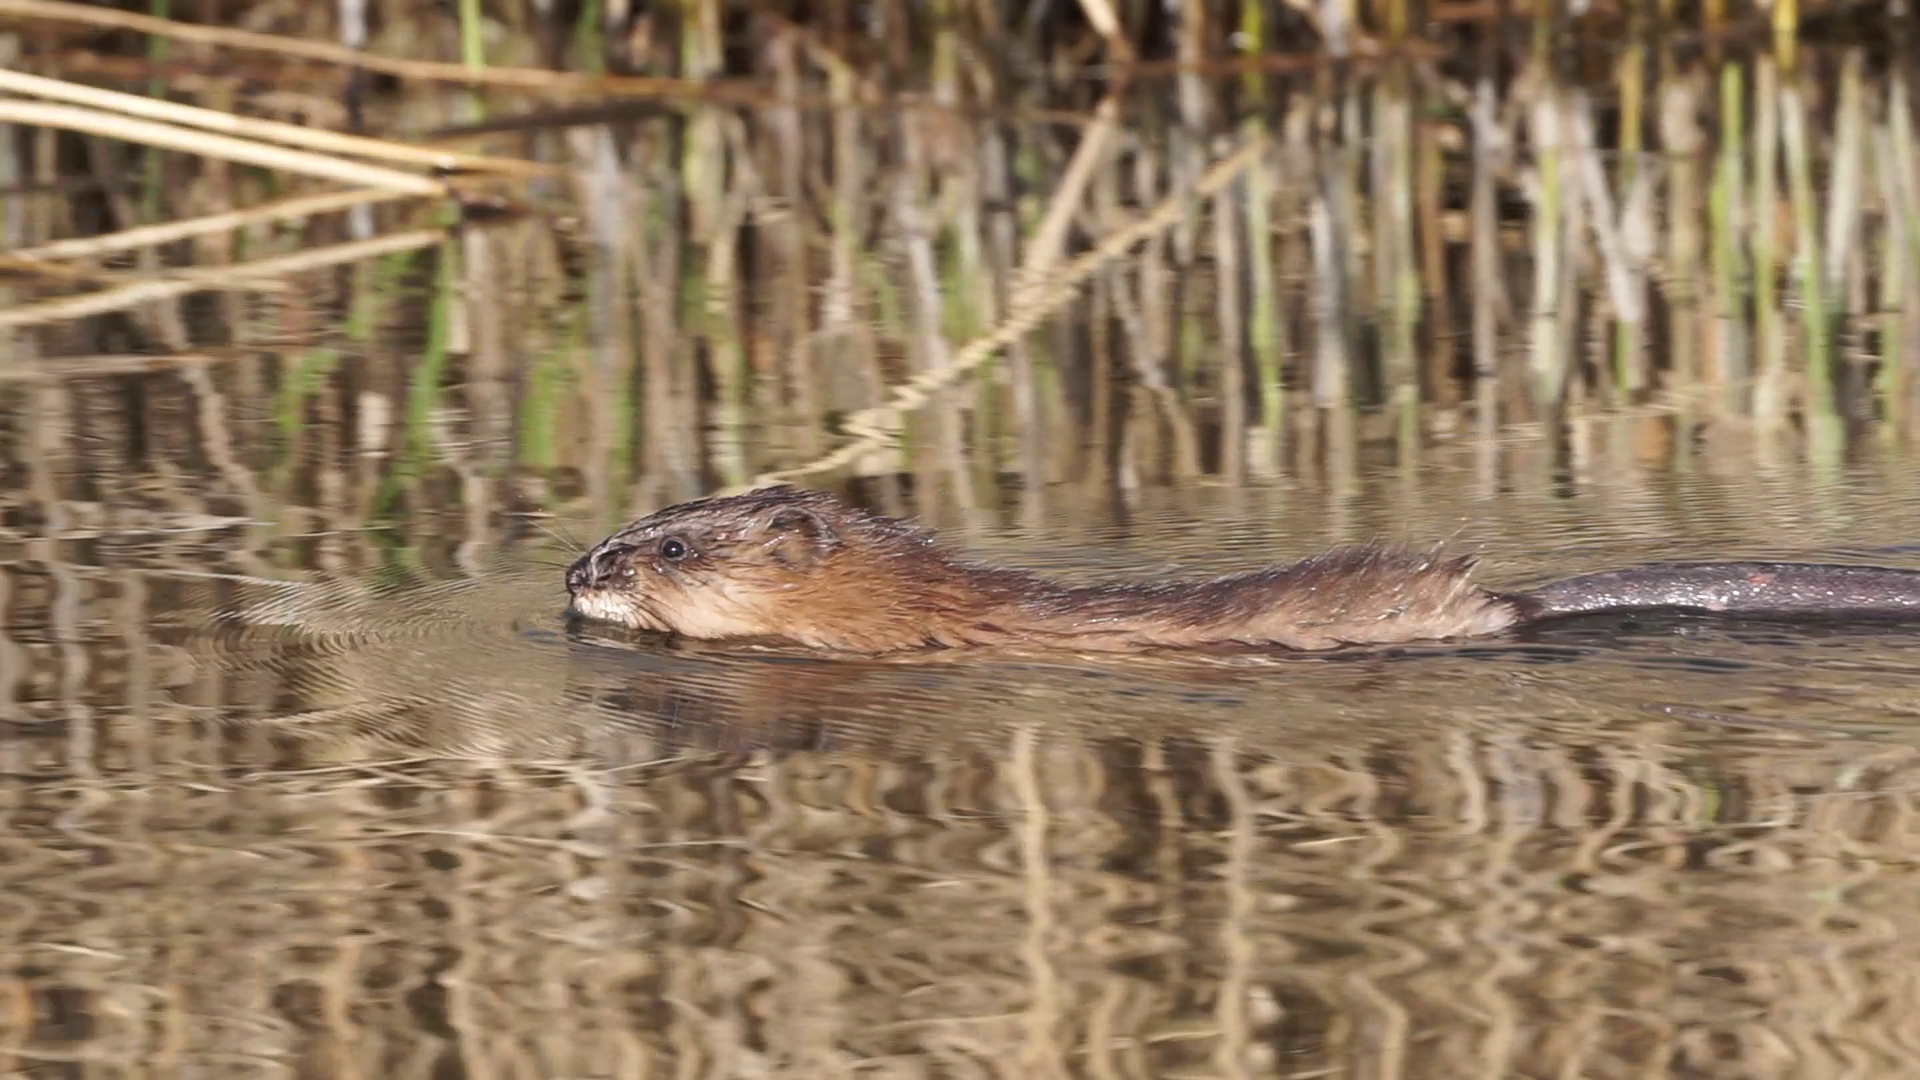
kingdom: Animalia
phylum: Chordata
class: Mammalia
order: Rodentia
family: Cricetidae
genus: Ondatra
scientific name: Ondatra zibethicus
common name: Muskrat
